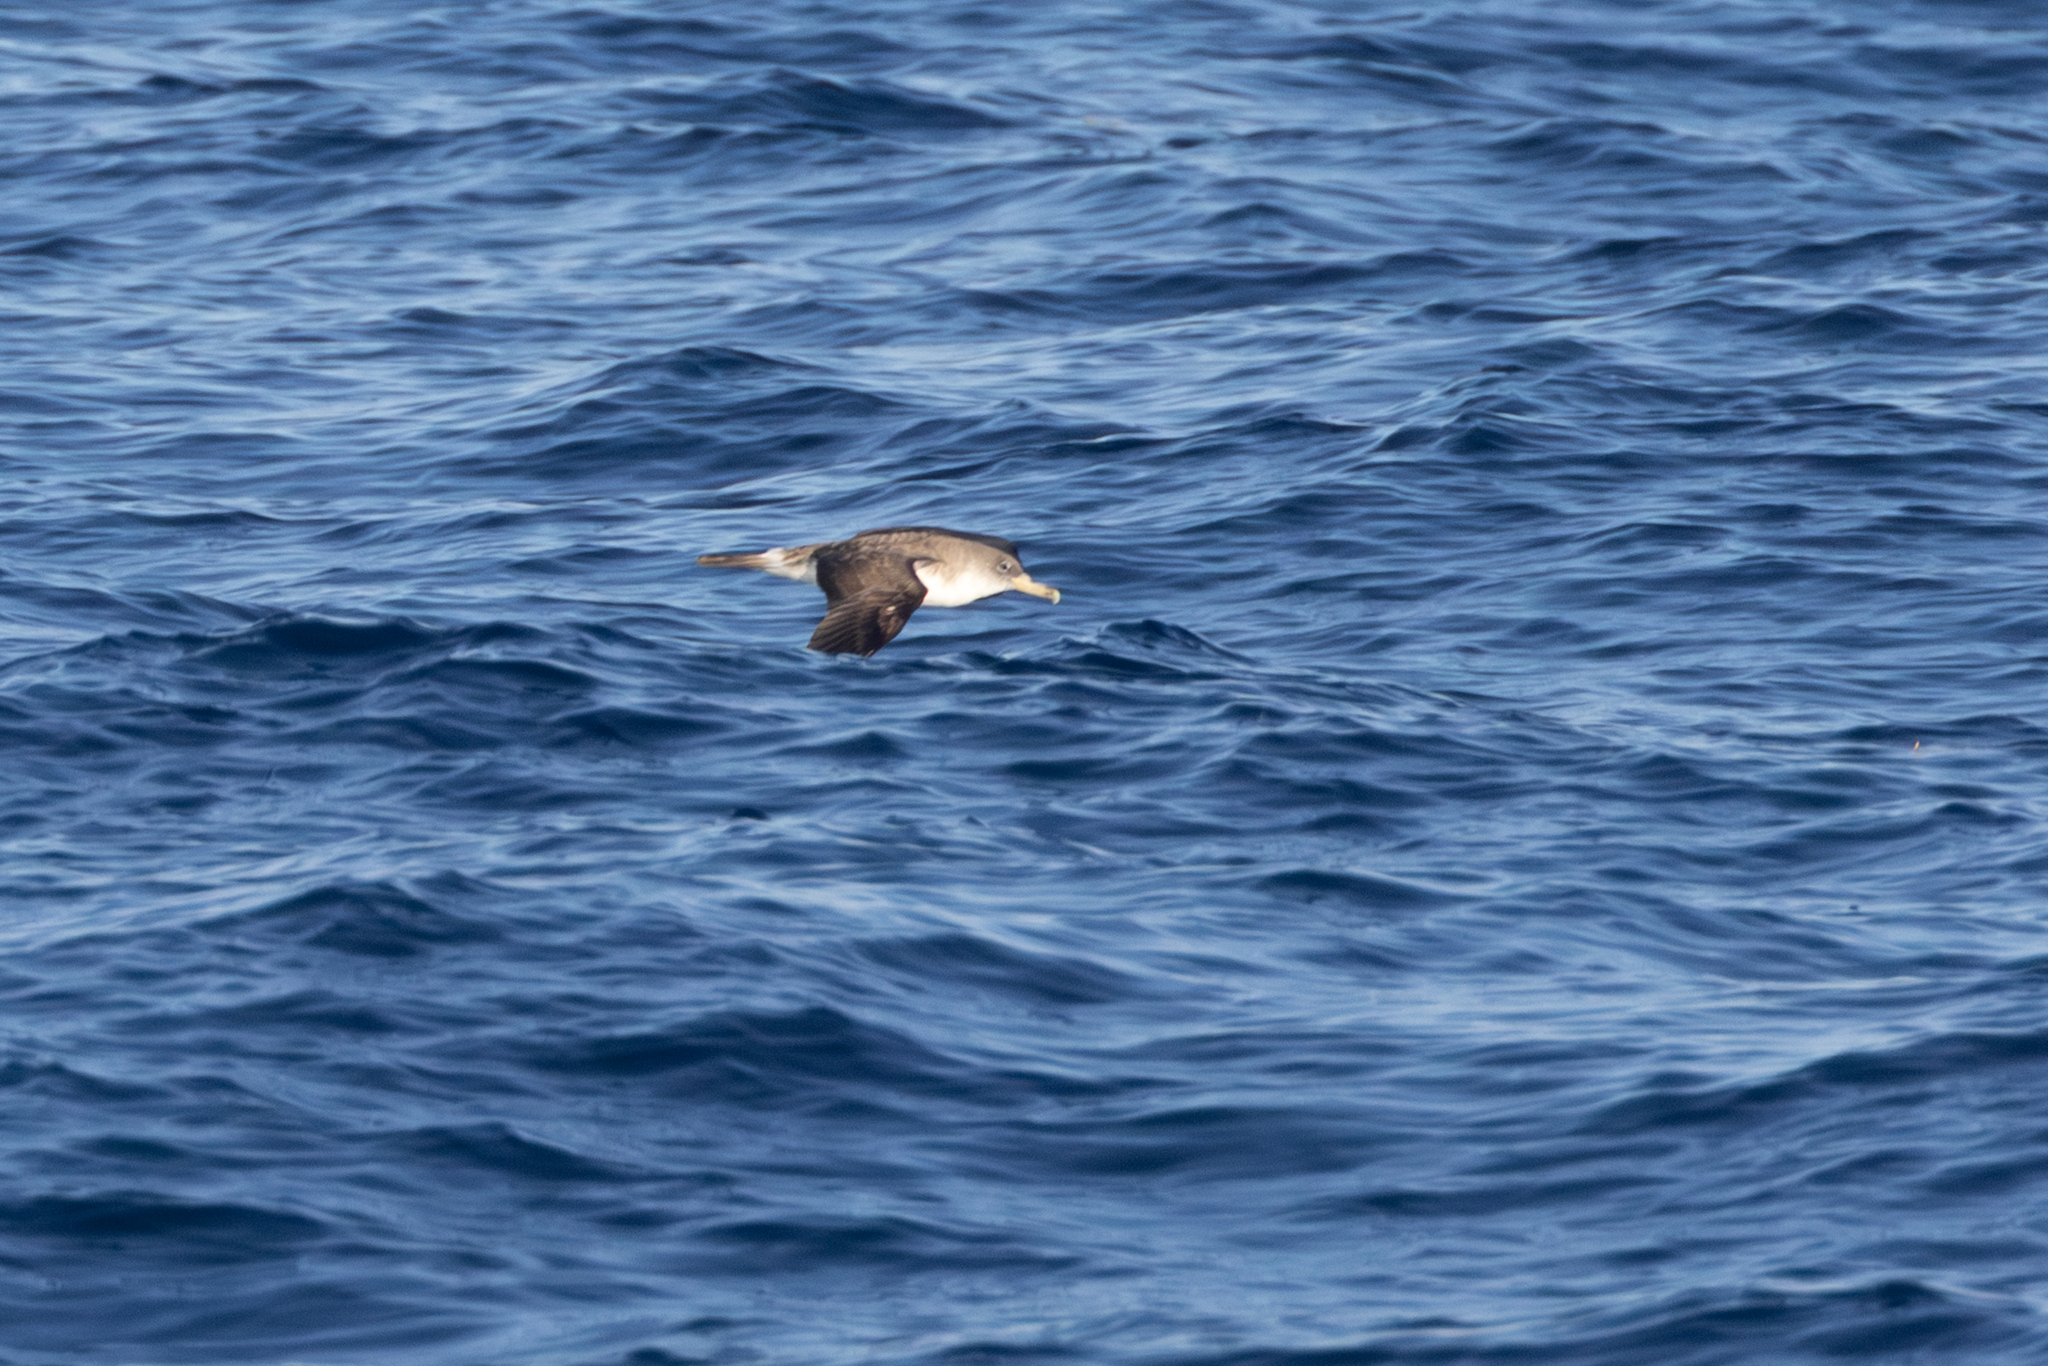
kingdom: Animalia
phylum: Chordata
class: Aves
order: Procellariiformes
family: Procellariidae
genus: Calonectris
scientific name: Calonectris diomedea
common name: Cory's shearwater
